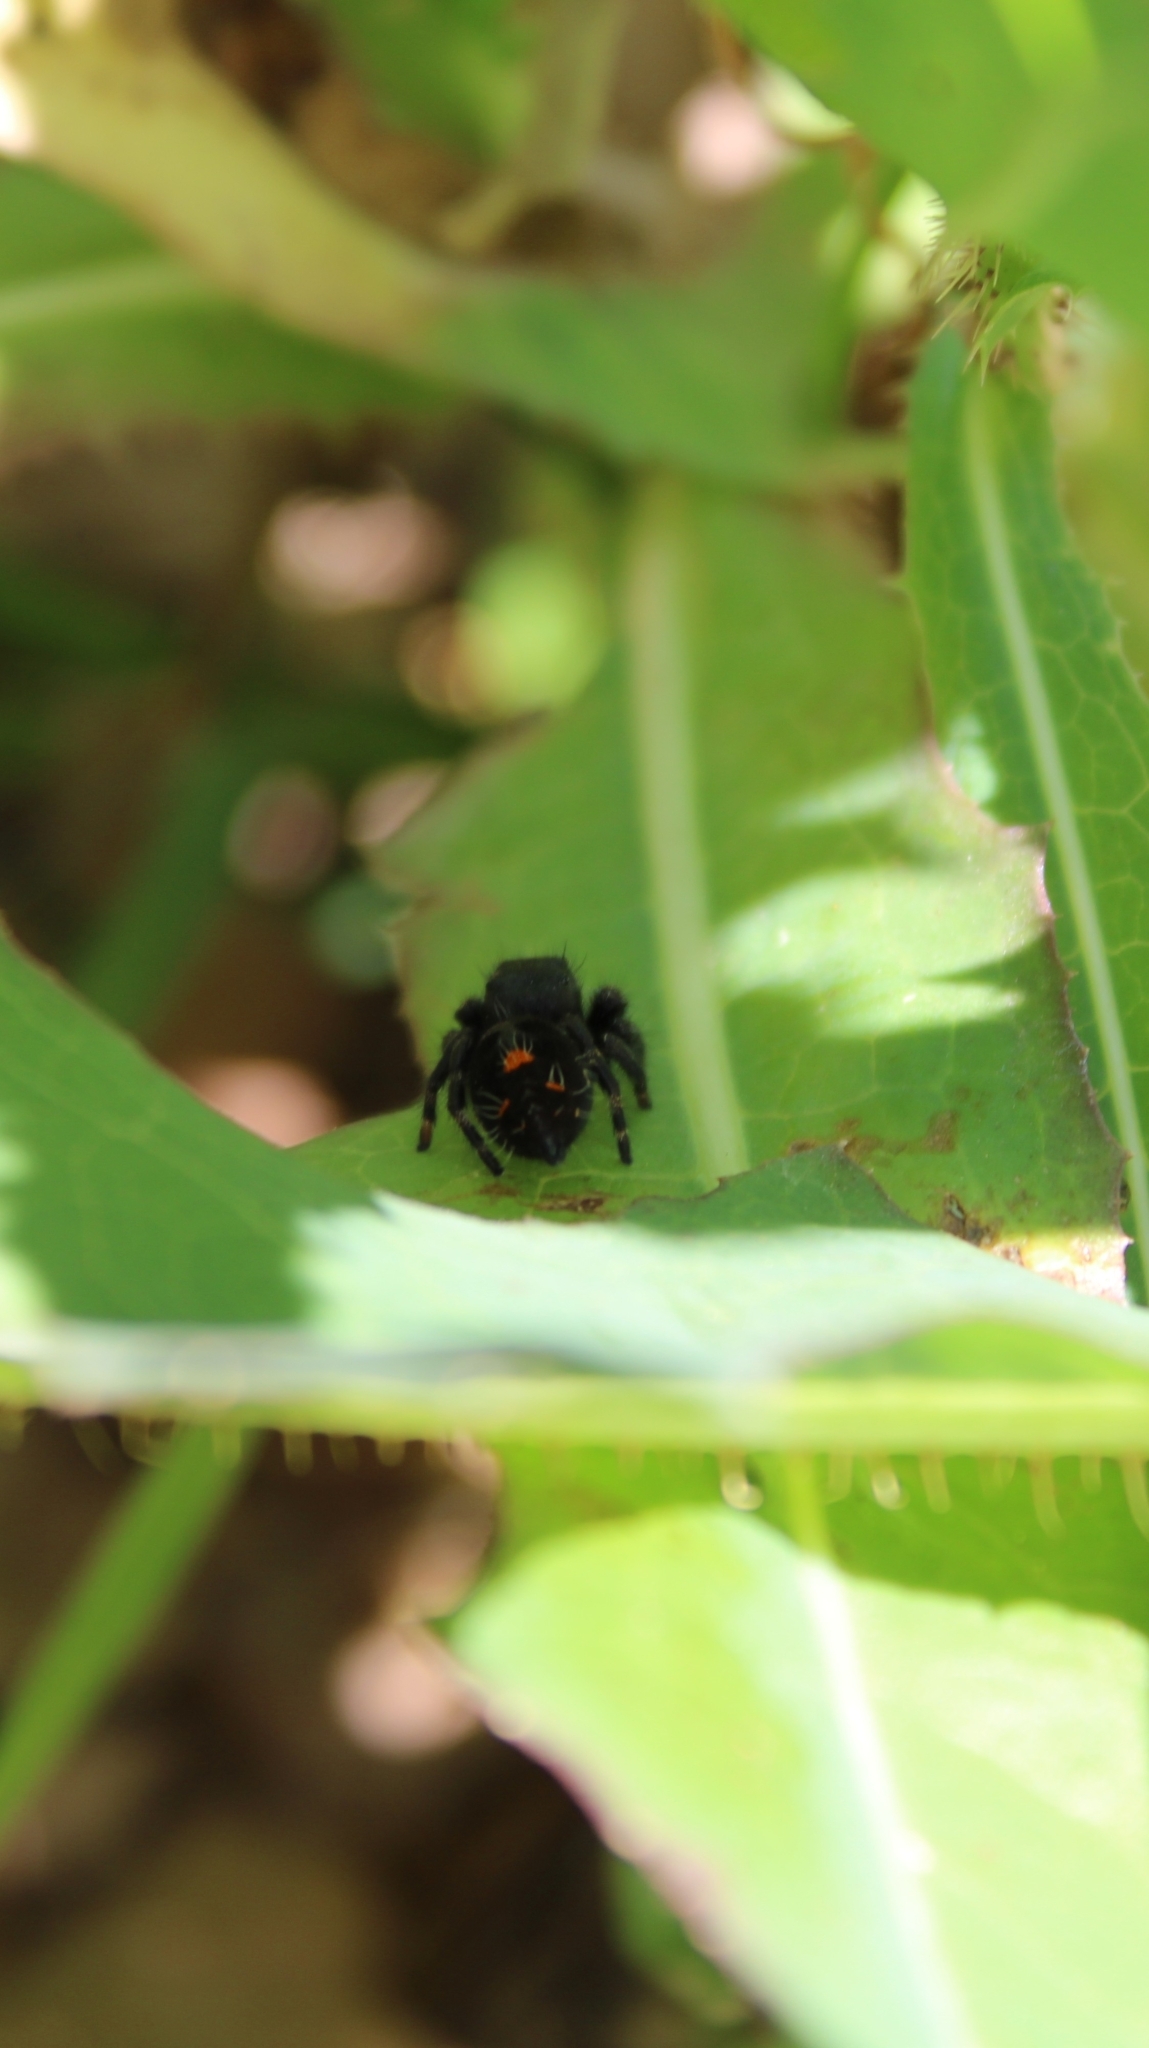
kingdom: Animalia
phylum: Arthropoda
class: Arachnida
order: Araneae
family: Salticidae
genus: Phidippus
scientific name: Phidippus audax
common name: Bold jumper
